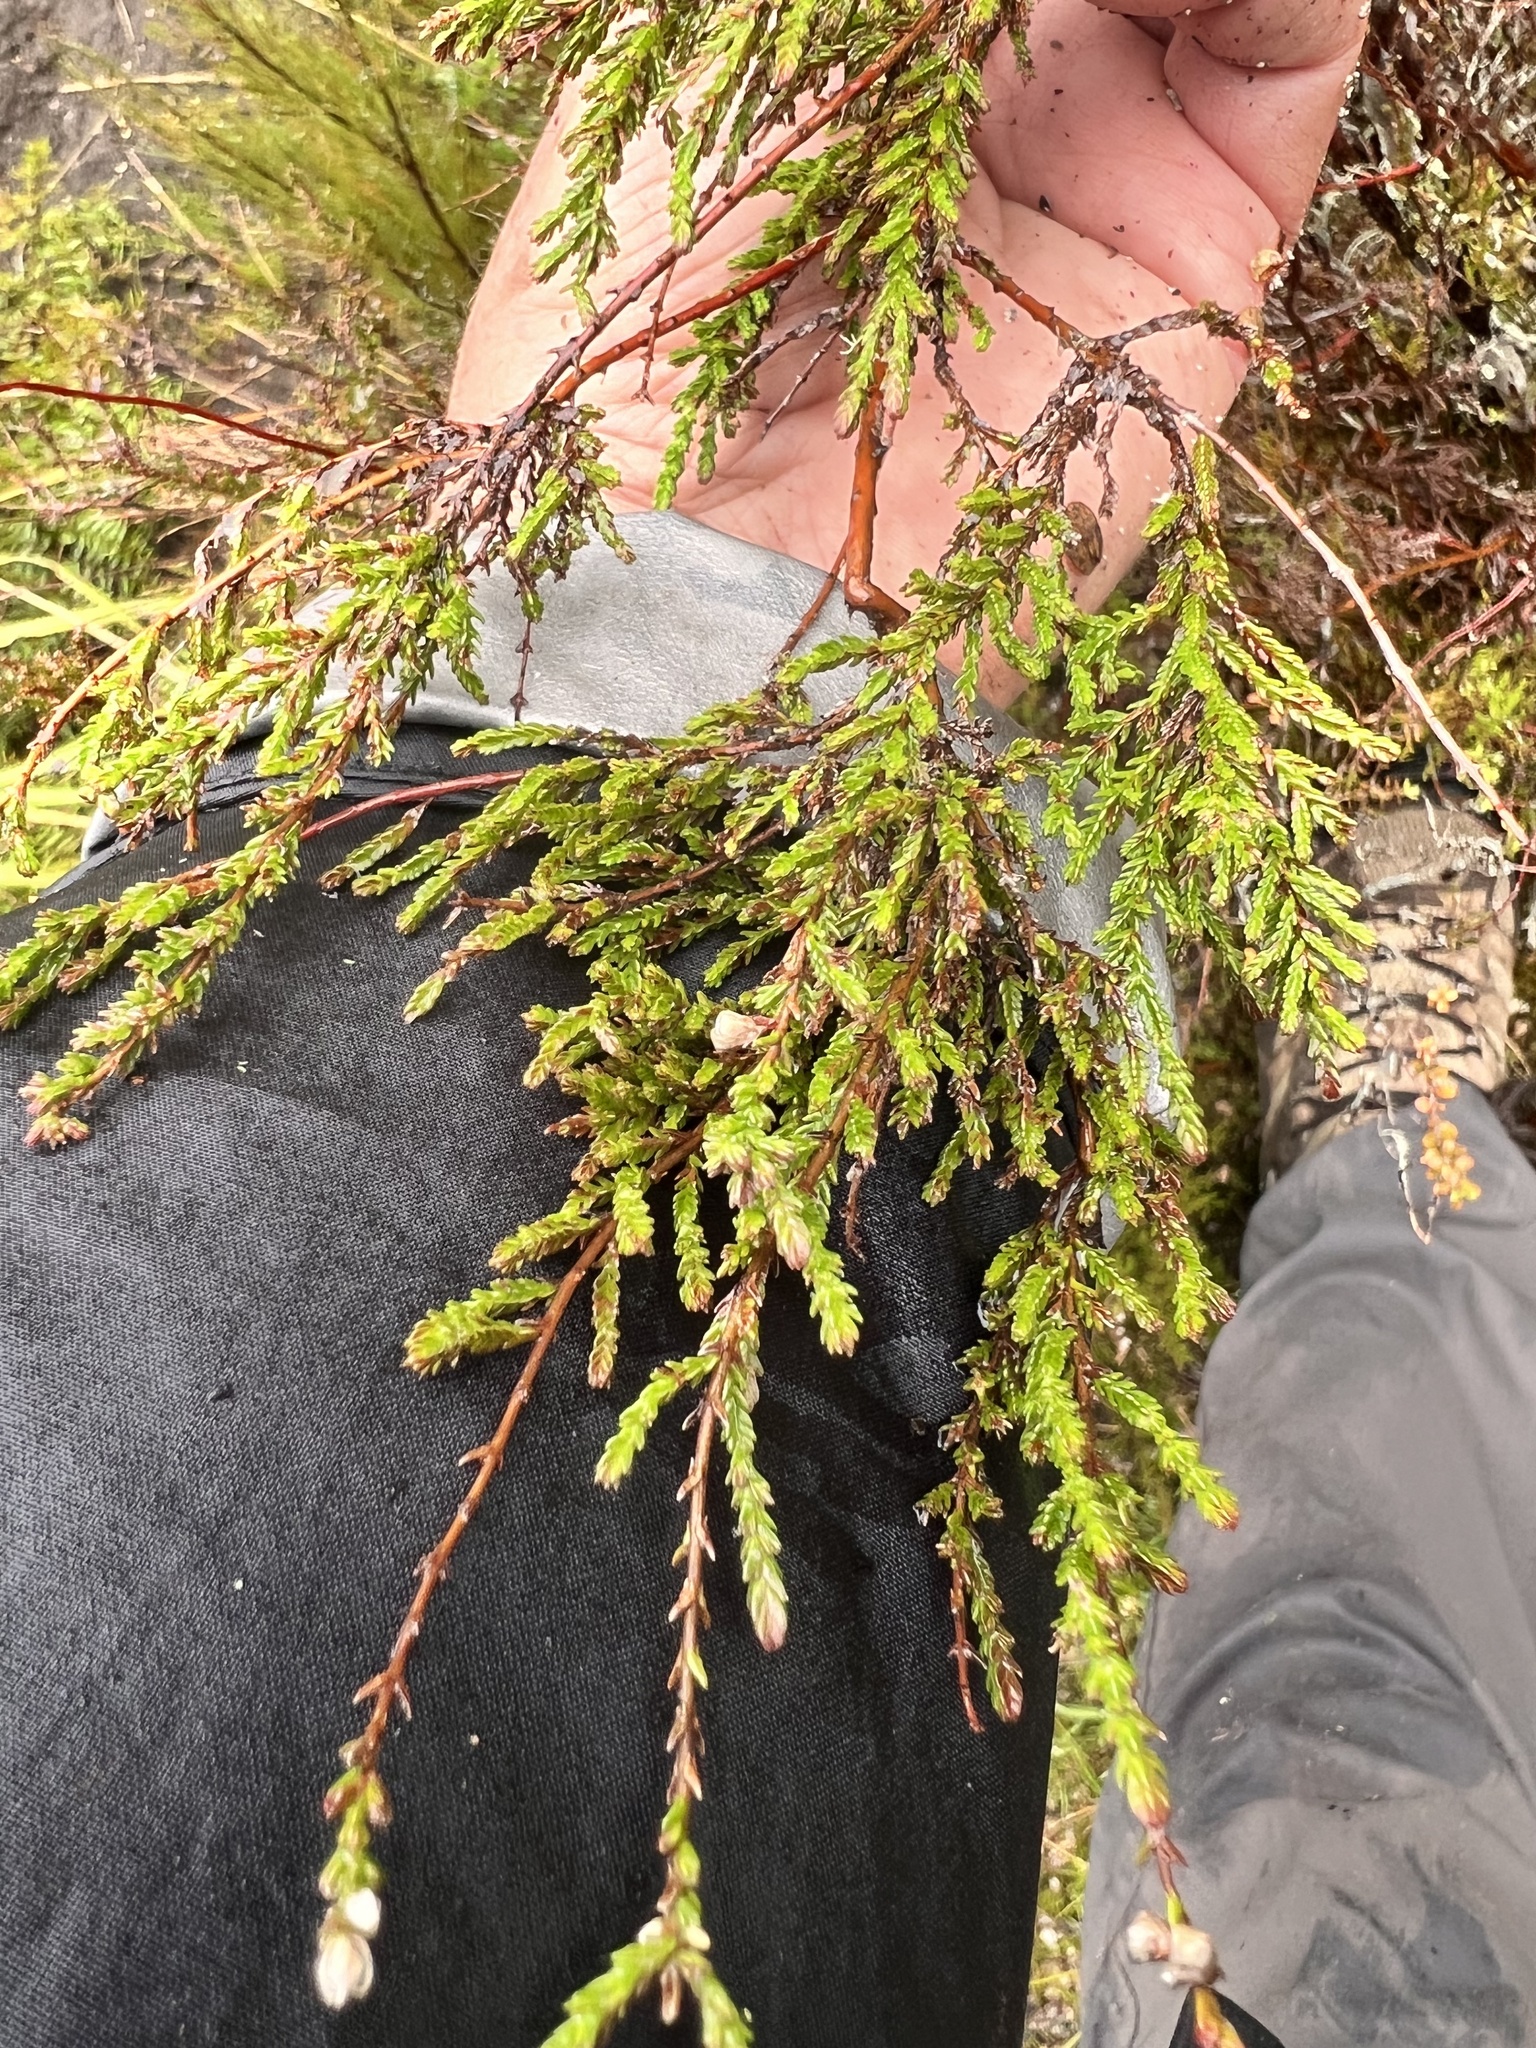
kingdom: Plantae
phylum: Tracheophyta
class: Magnoliopsida
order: Ericales
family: Ericaceae
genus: Calluna
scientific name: Calluna vulgaris
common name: Heather
